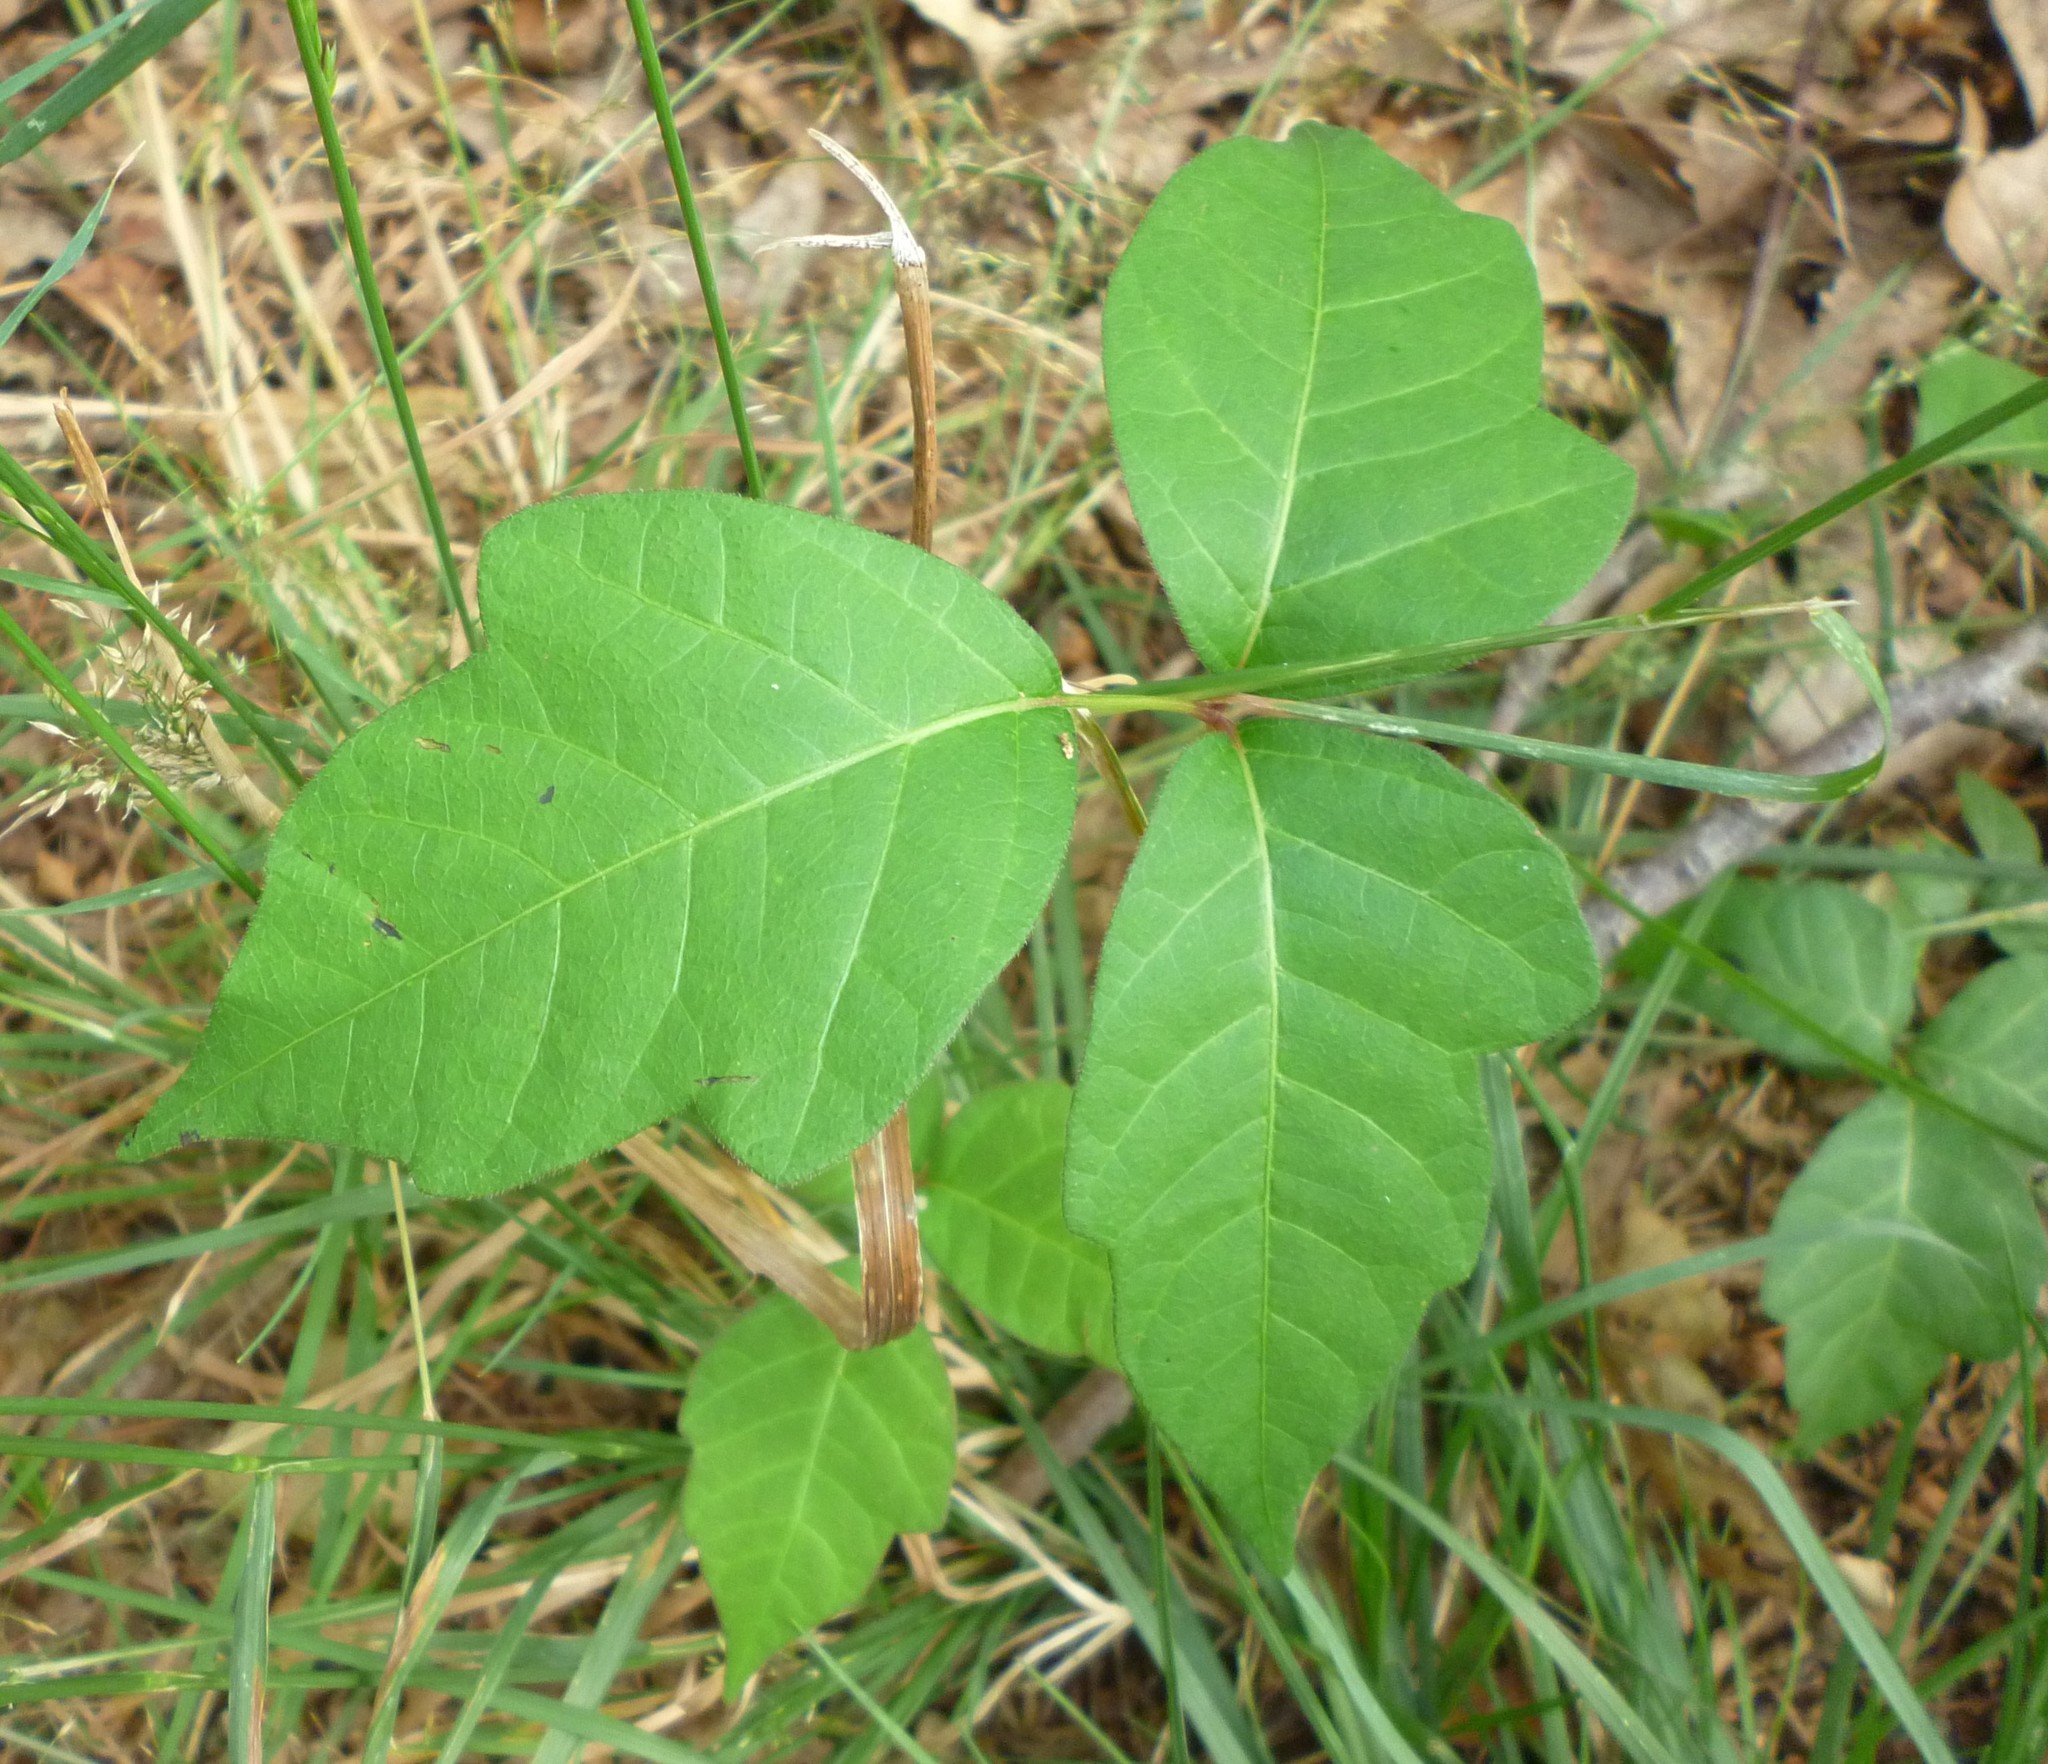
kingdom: Plantae
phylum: Tracheophyta
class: Magnoliopsida
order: Sapindales
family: Anacardiaceae
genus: Toxicodendron
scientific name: Toxicodendron radicans
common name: Poison ivy
